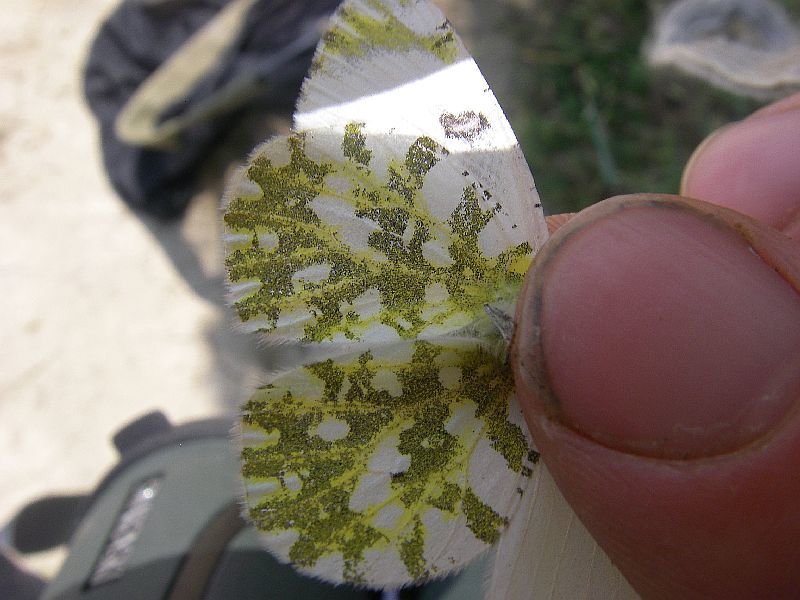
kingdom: Animalia
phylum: Arthropoda
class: Insecta
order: Lepidoptera
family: Pieridae
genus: Euchloe
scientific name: Euchloe ausonia
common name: Eastern dappled white
